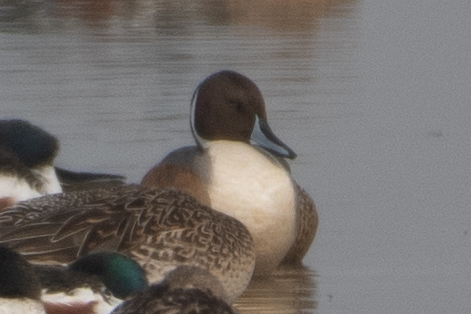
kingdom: Animalia
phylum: Chordata
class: Aves
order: Anseriformes
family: Anatidae
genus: Anas
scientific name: Anas acuta
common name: Northern pintail
